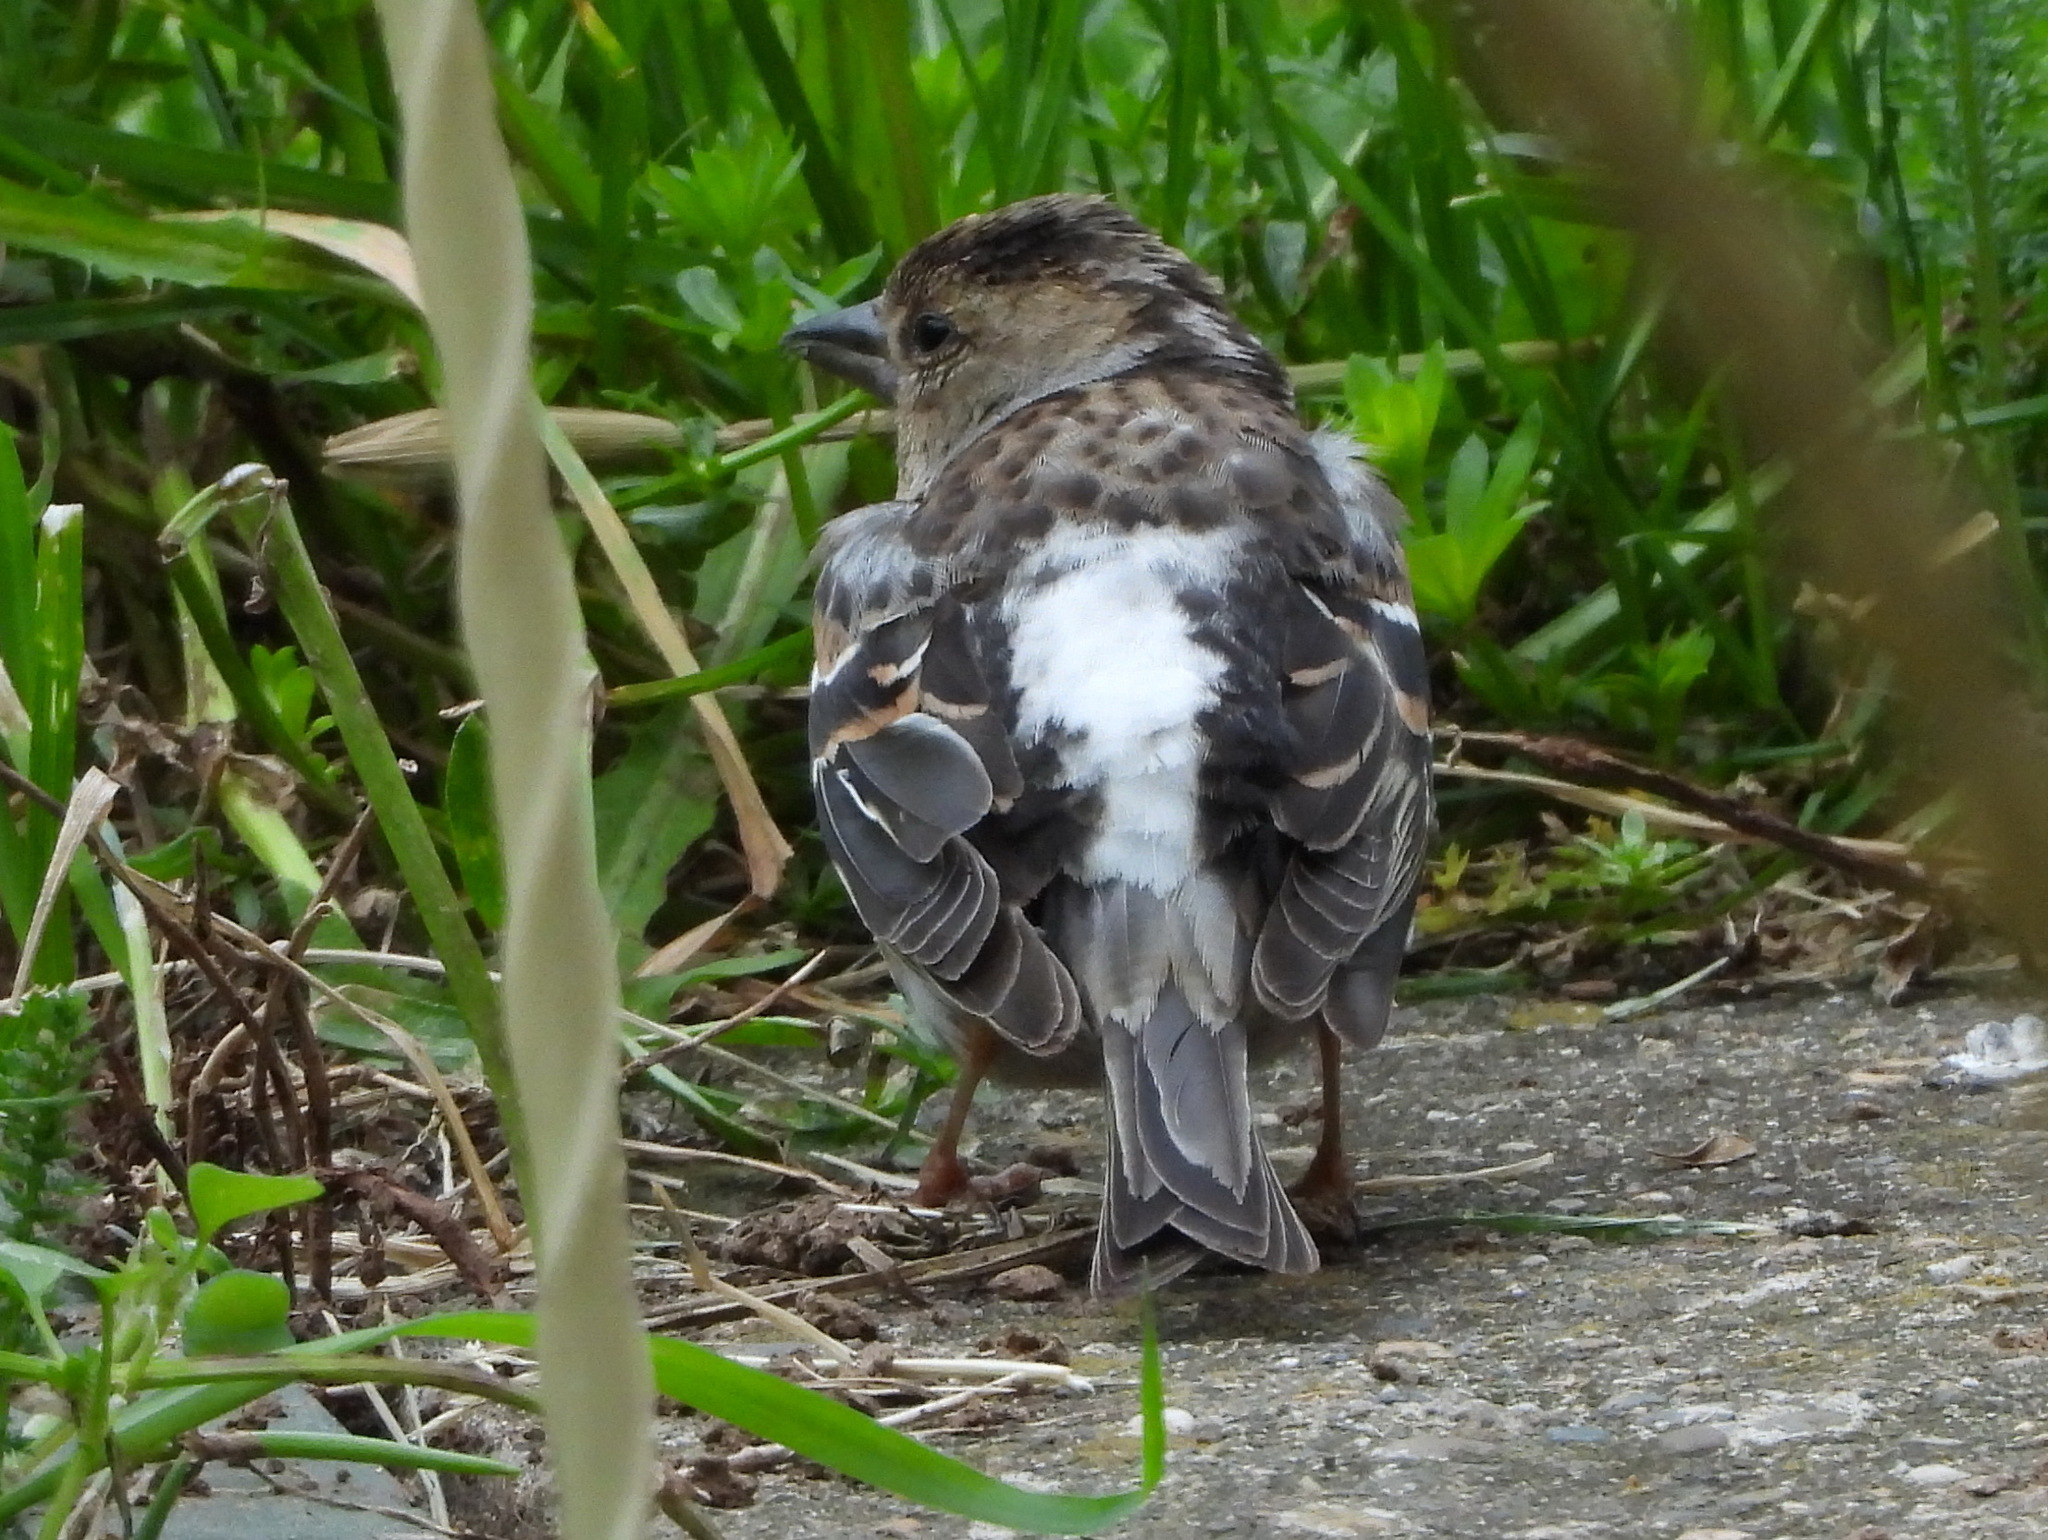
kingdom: Animalia
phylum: Chordata
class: Aves
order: Passeriformes
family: Fringillidae
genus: Fringilla
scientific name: Fringilla montifringilla
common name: Brambling
